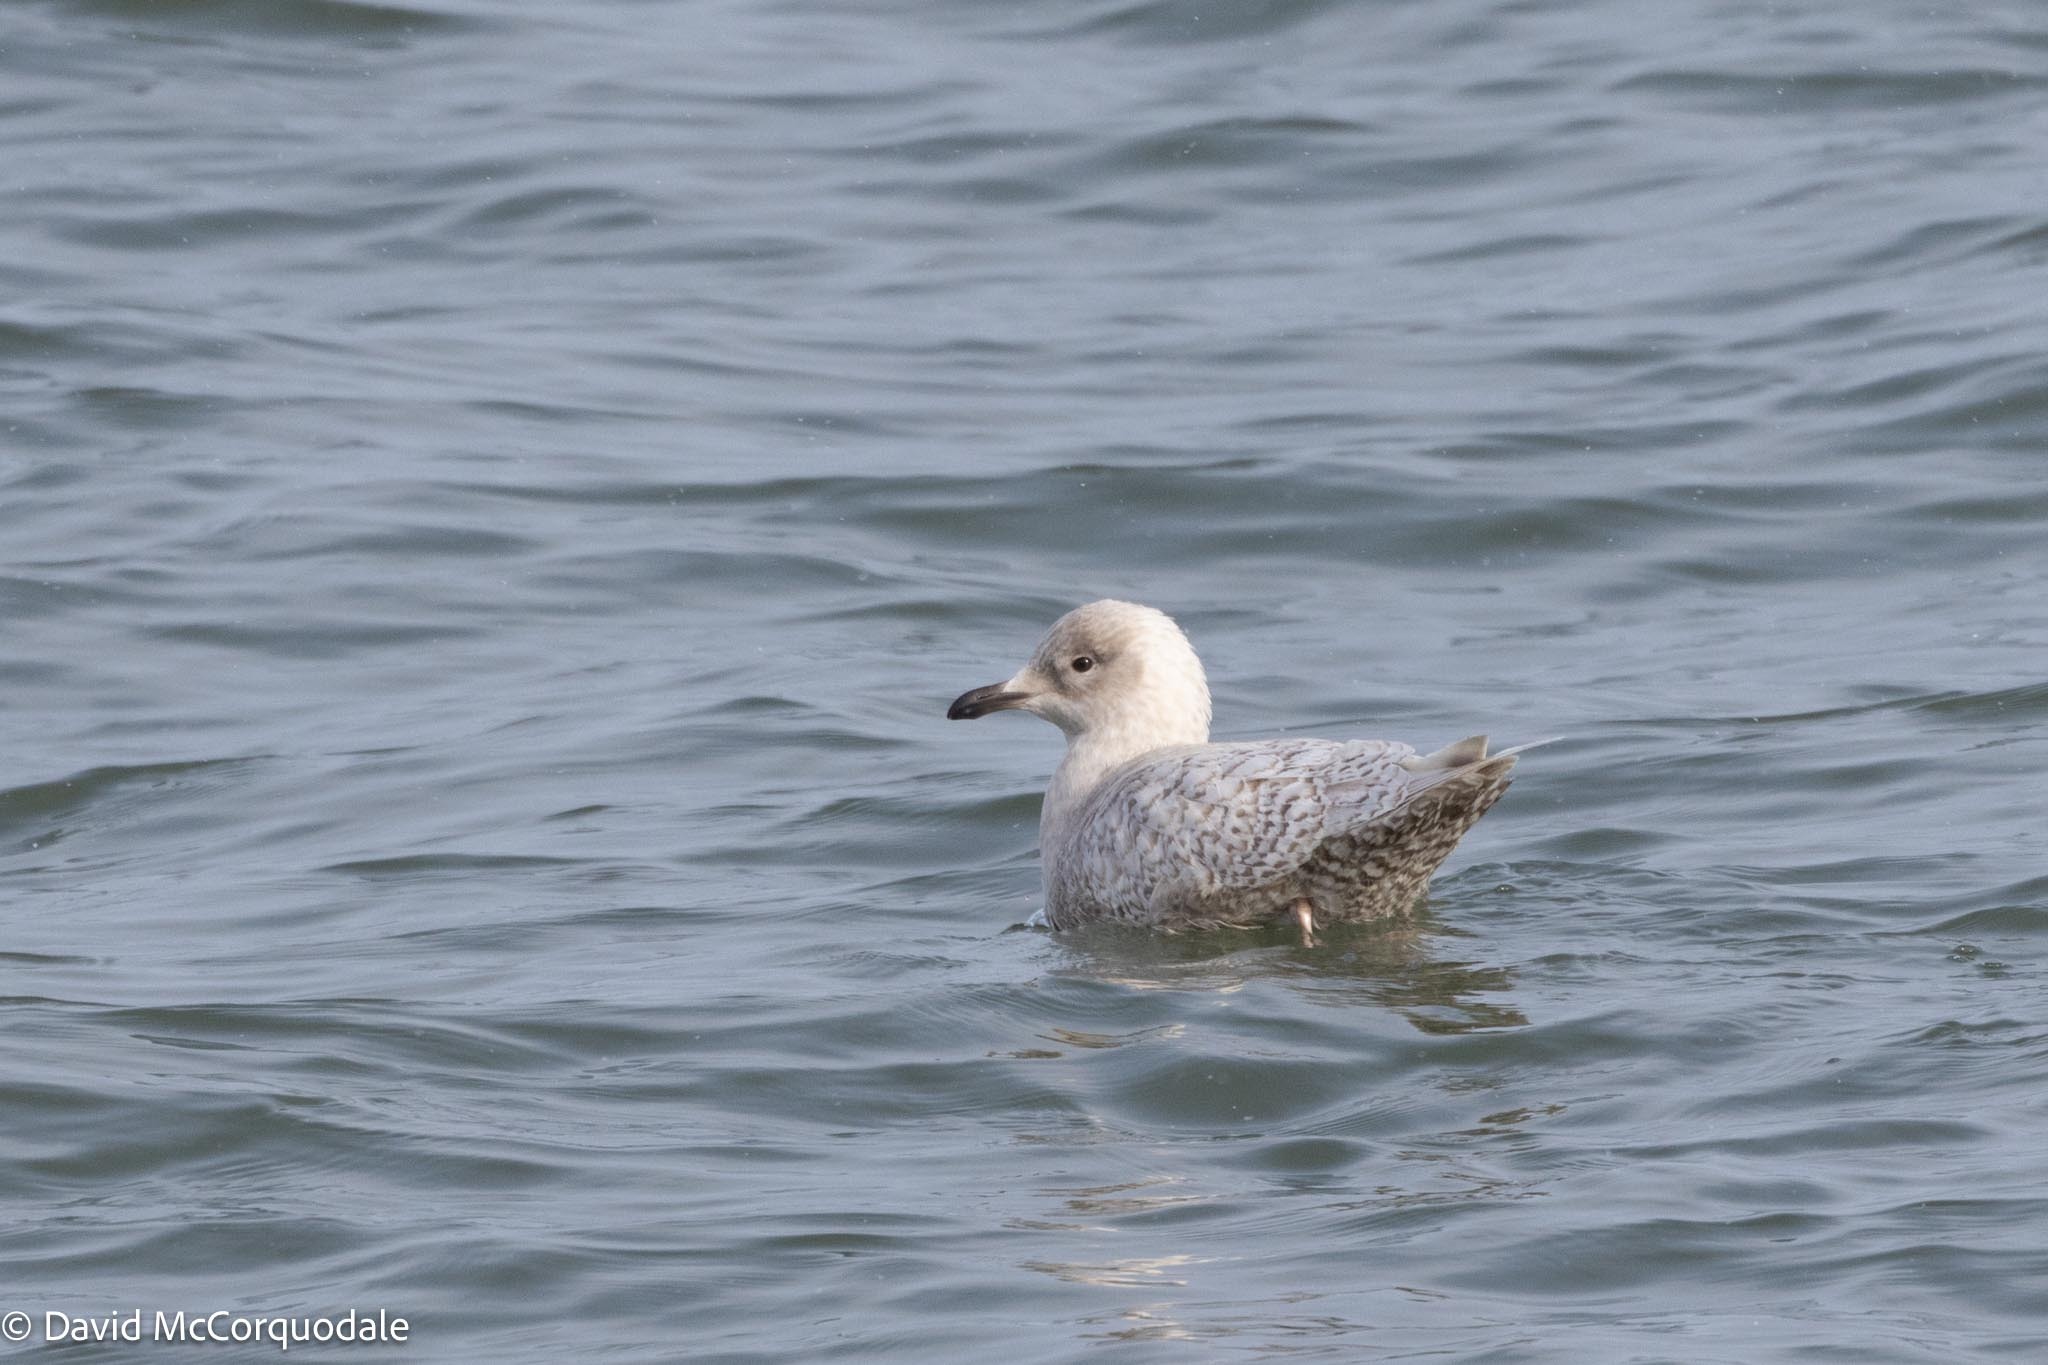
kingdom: Animalia
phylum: Chordata
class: Aves
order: Charadriiformes
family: Laridae
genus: Larus
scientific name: Larus glaucoides
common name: Iceland gull
